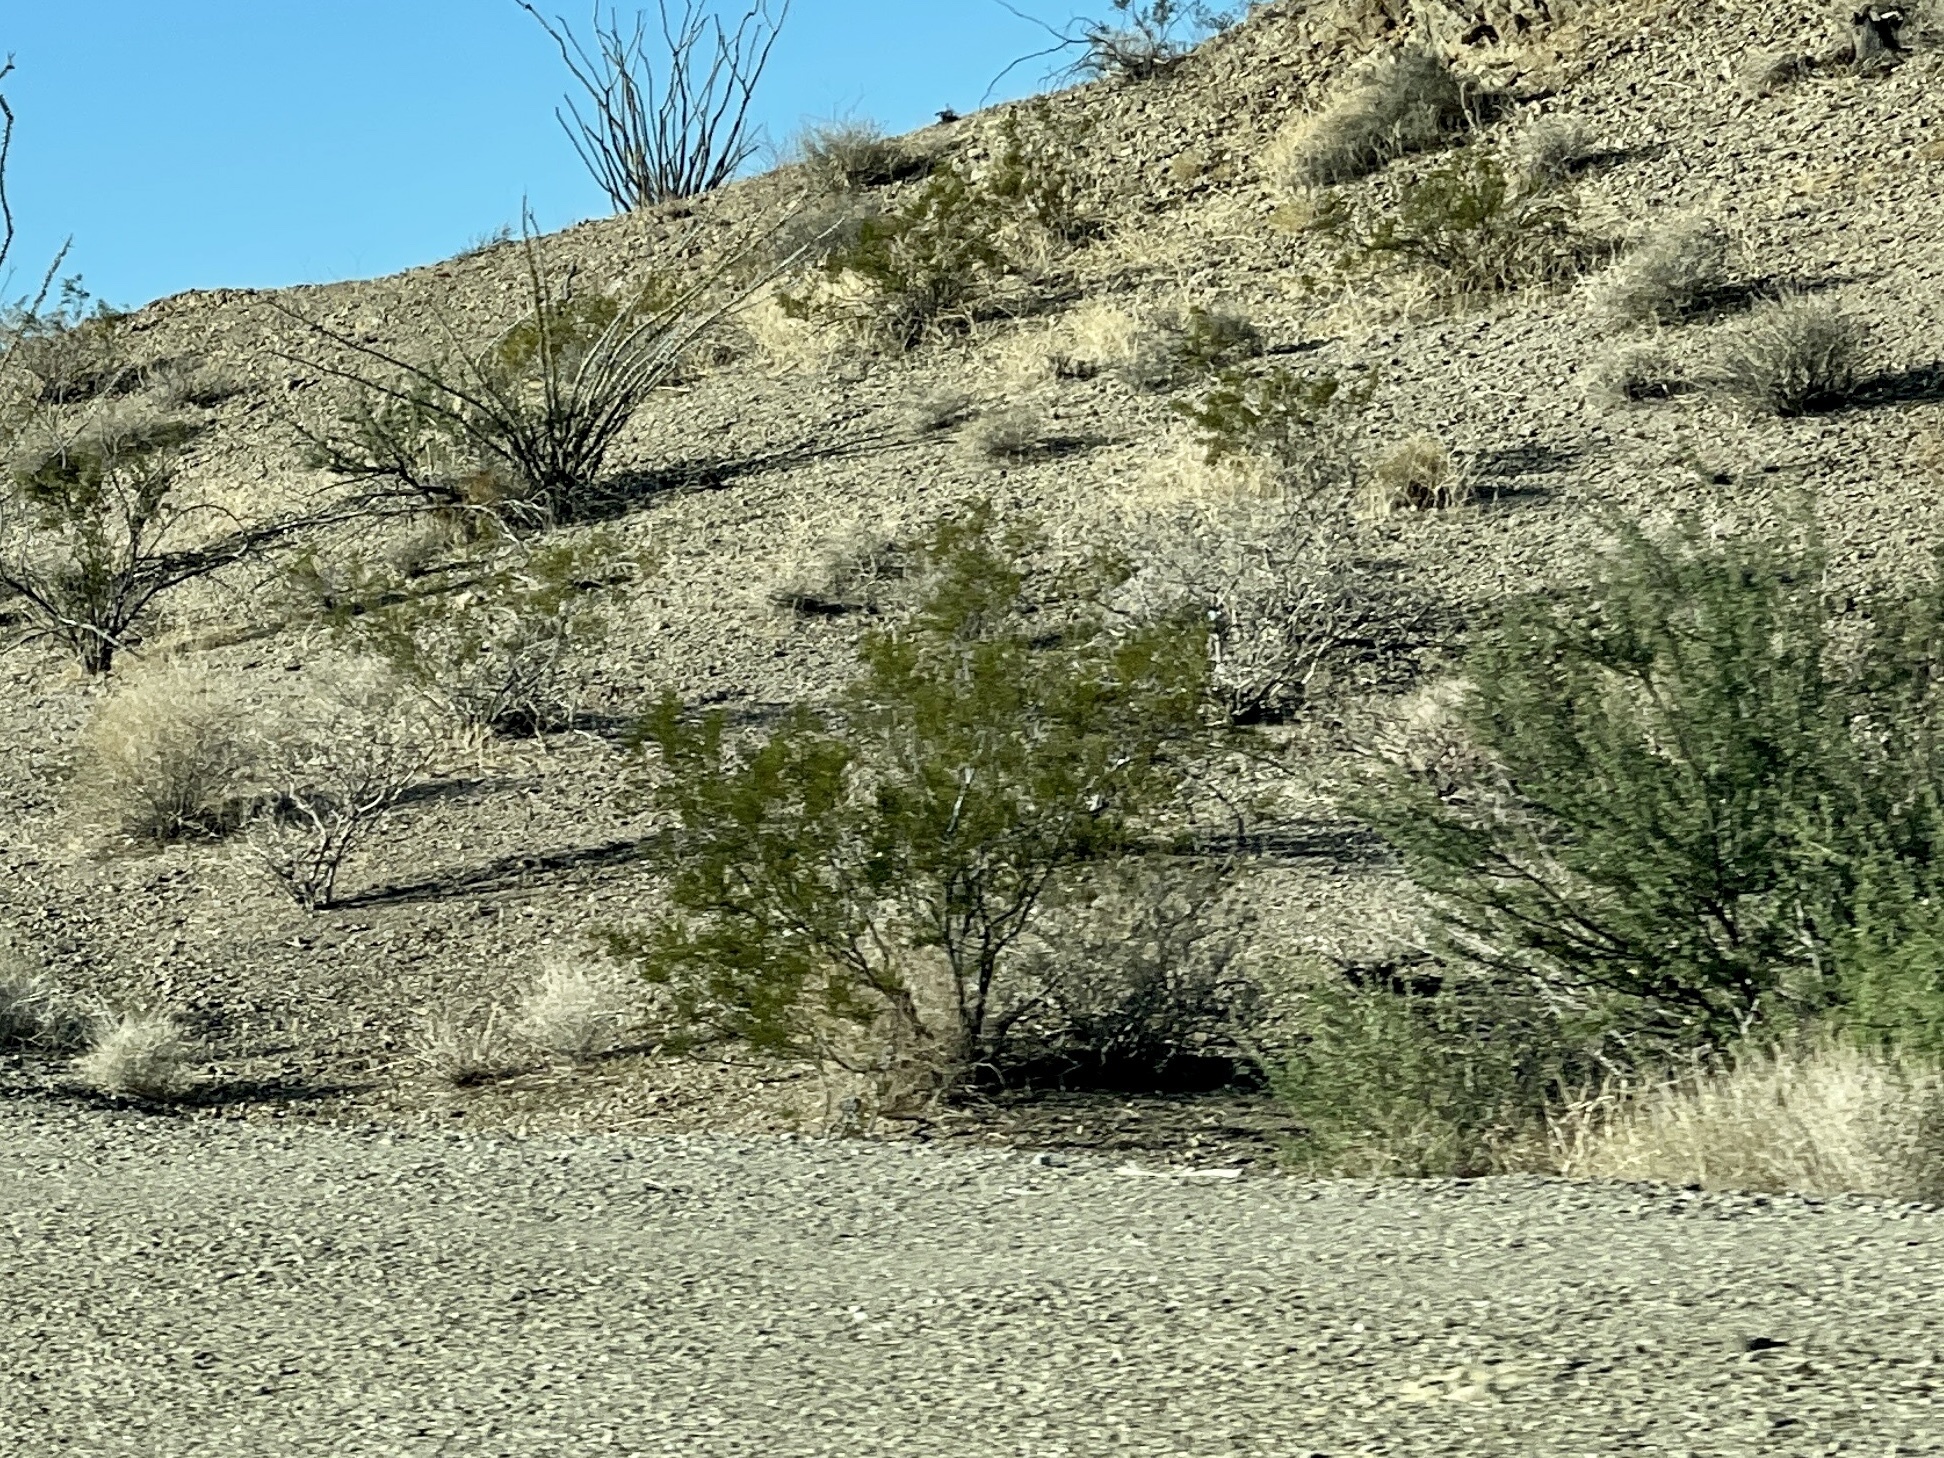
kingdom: Plantae
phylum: Tracheophyta
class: Magnoliopsida
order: Zygophyllales
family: Zygophyllaceae
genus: Larrea
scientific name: Larrea tridentata
